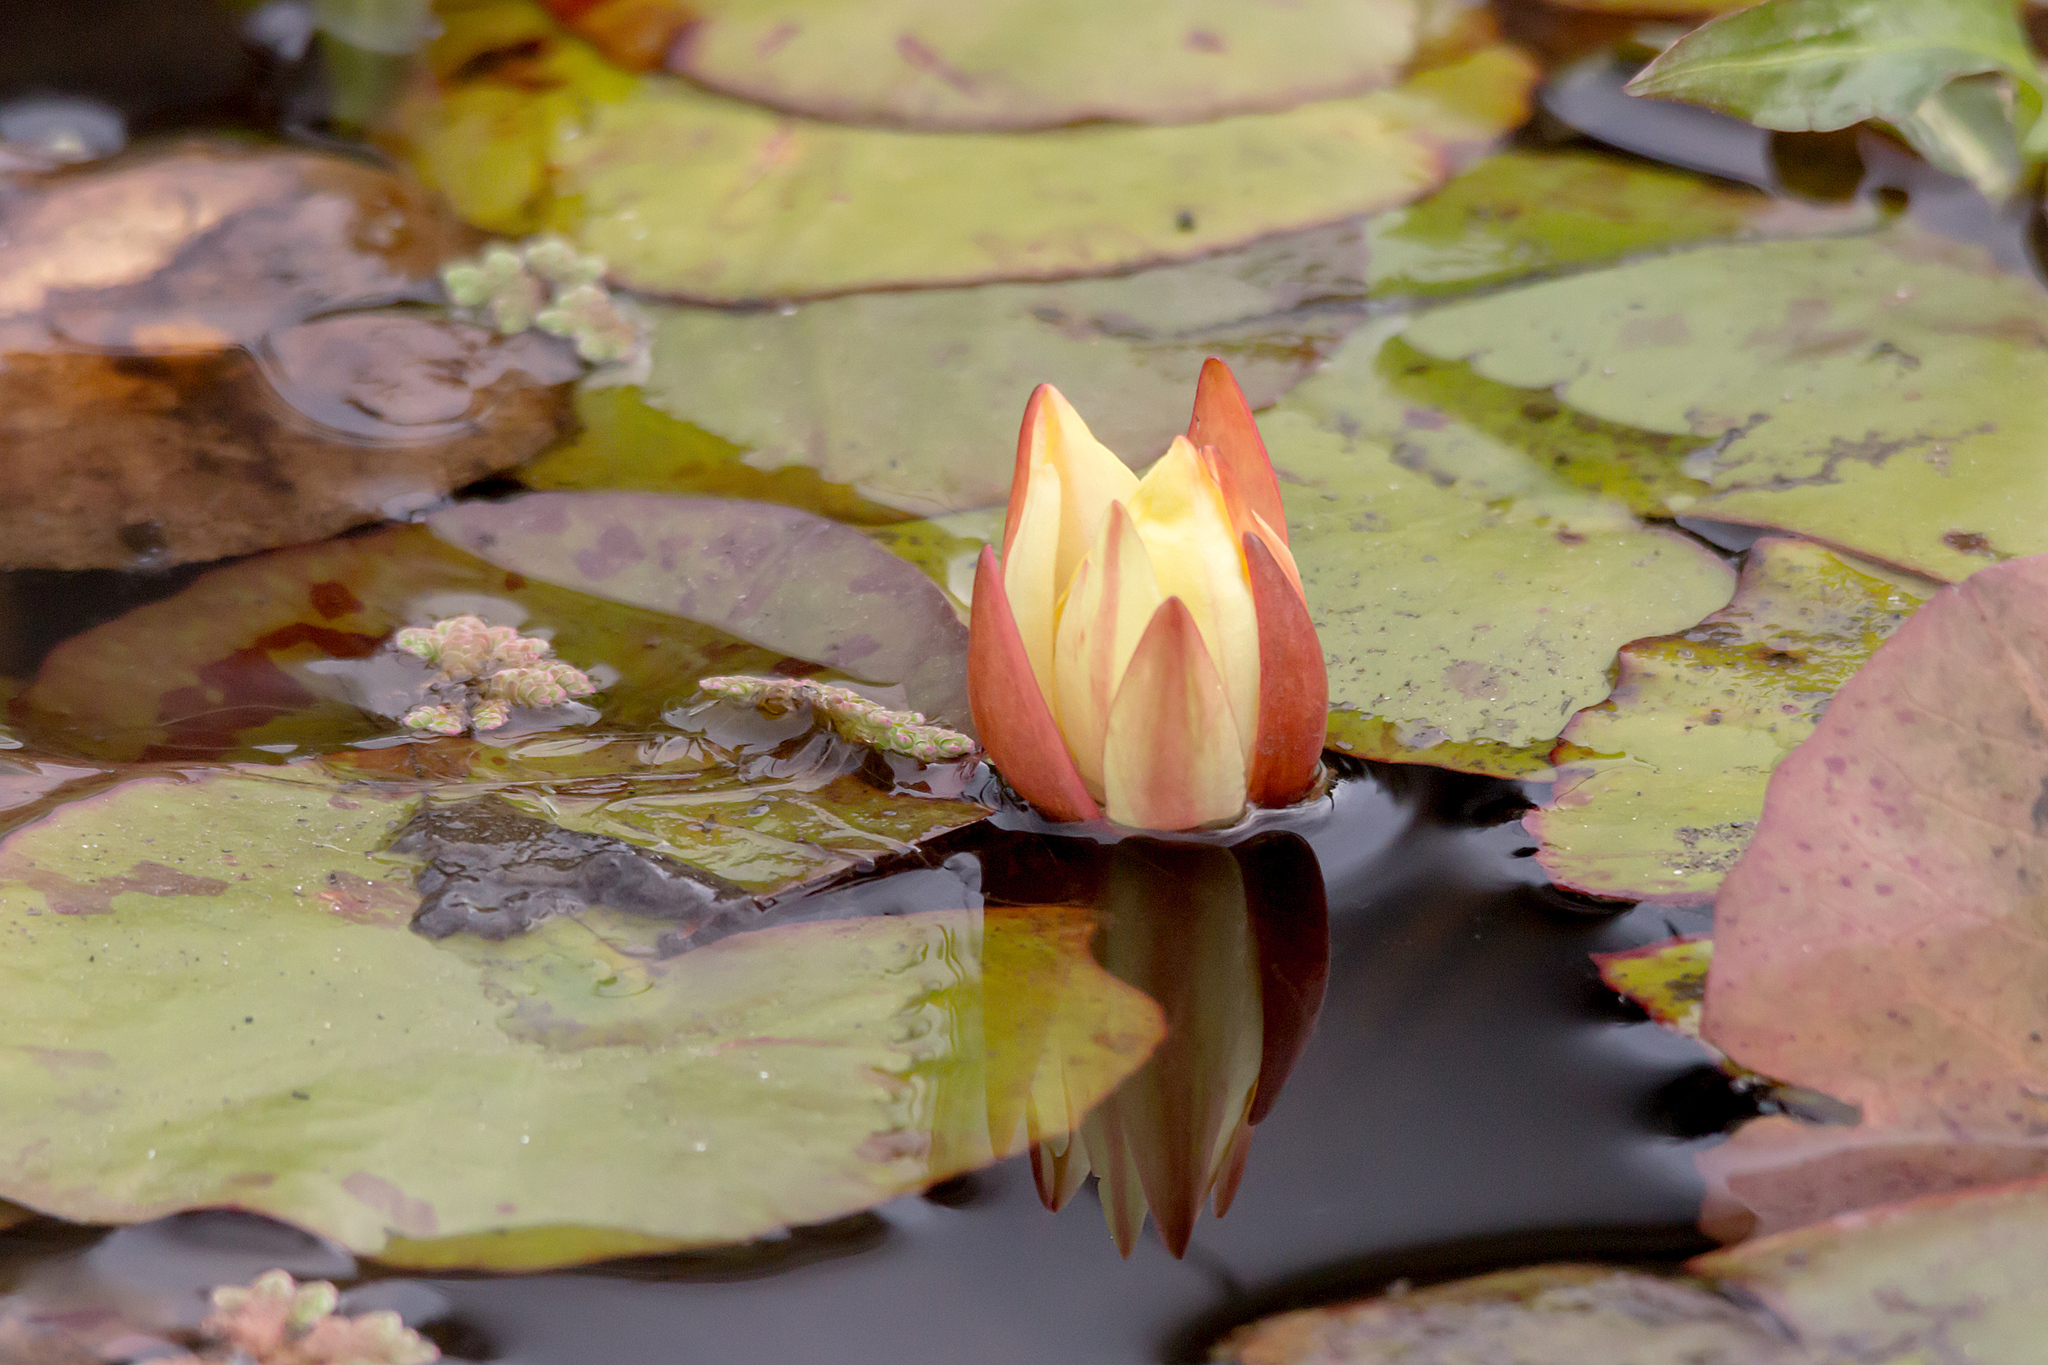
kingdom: Plantae
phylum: Tracheophyta
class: Magnoliopsida
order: Nymphaeales
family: Nymphaeaceae
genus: Nymphaea
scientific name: Nymphaea mexicana
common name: Banana water-lily
